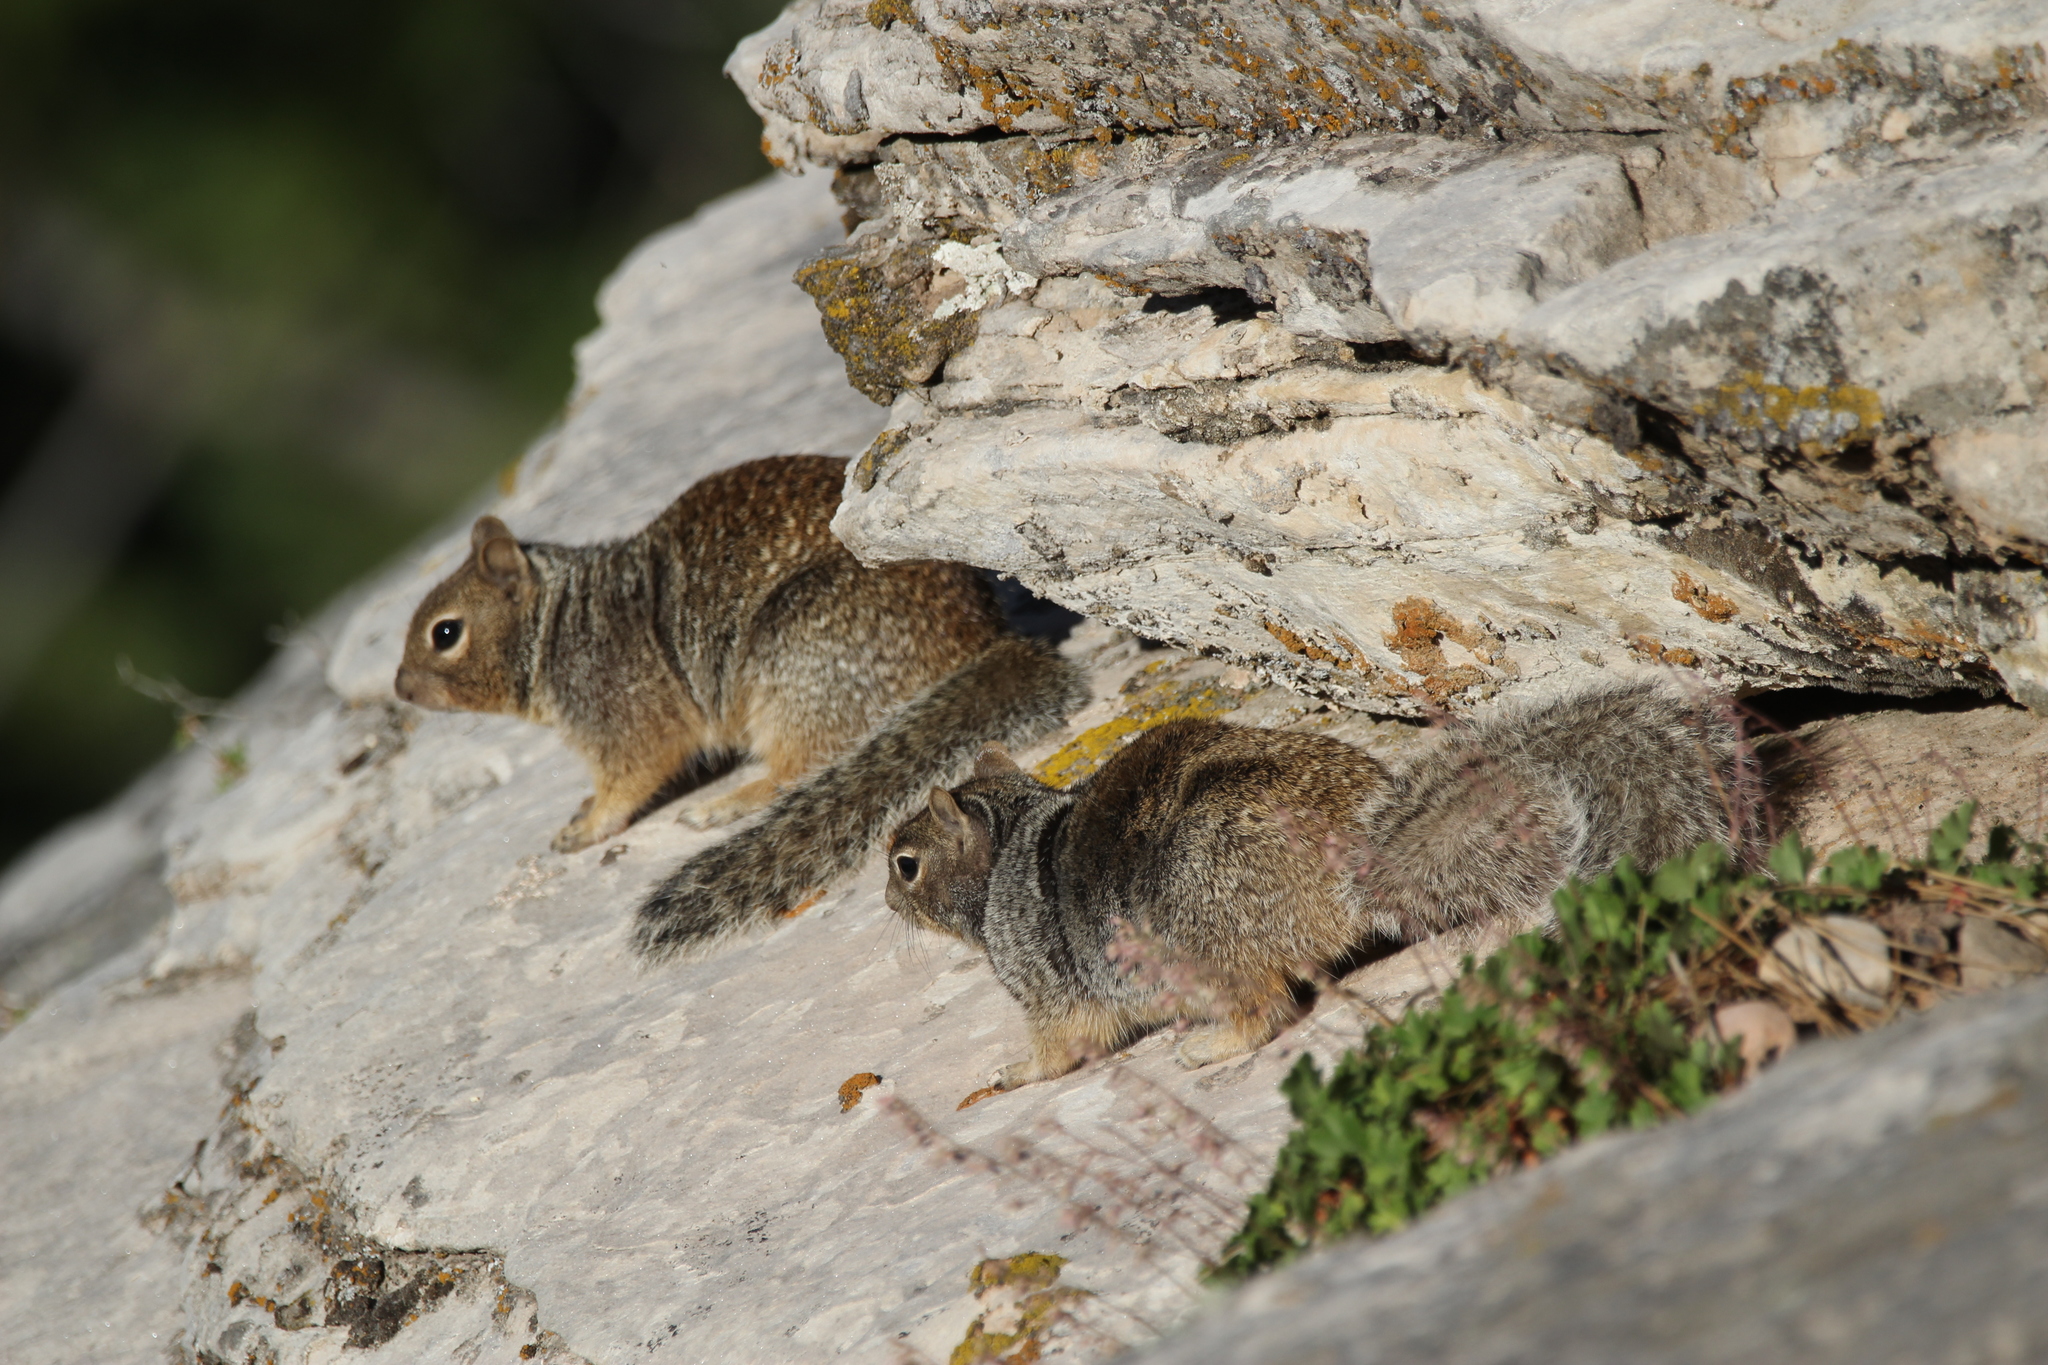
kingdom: Animalia
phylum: Chordata
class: Mammalia
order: Rodentia
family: Sciuridae
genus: Otospermophilus
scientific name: Otospermophilus variegatus
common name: Rock squirrel
